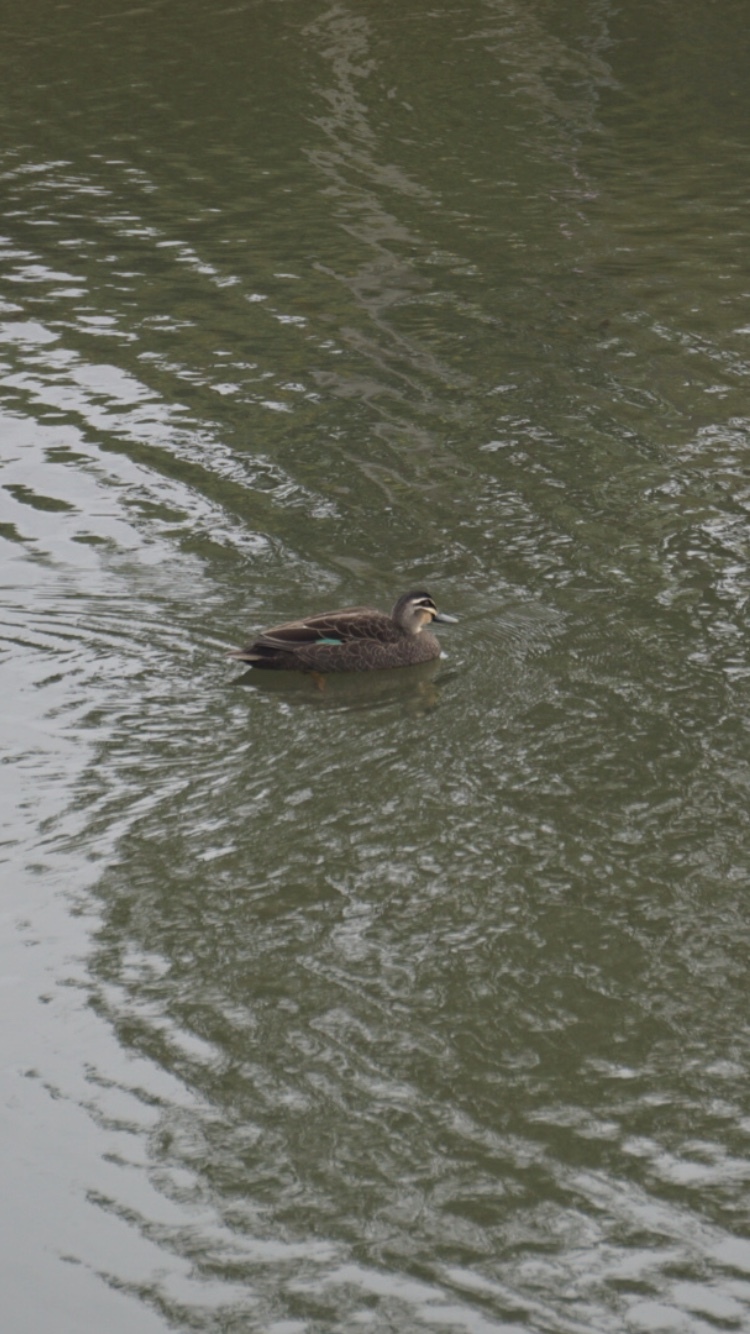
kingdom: Animalia
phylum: Chordata
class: Aves
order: Anseriformes
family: Anatidae
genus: Anas
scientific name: Anas superciliosa
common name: Pacific black duck
